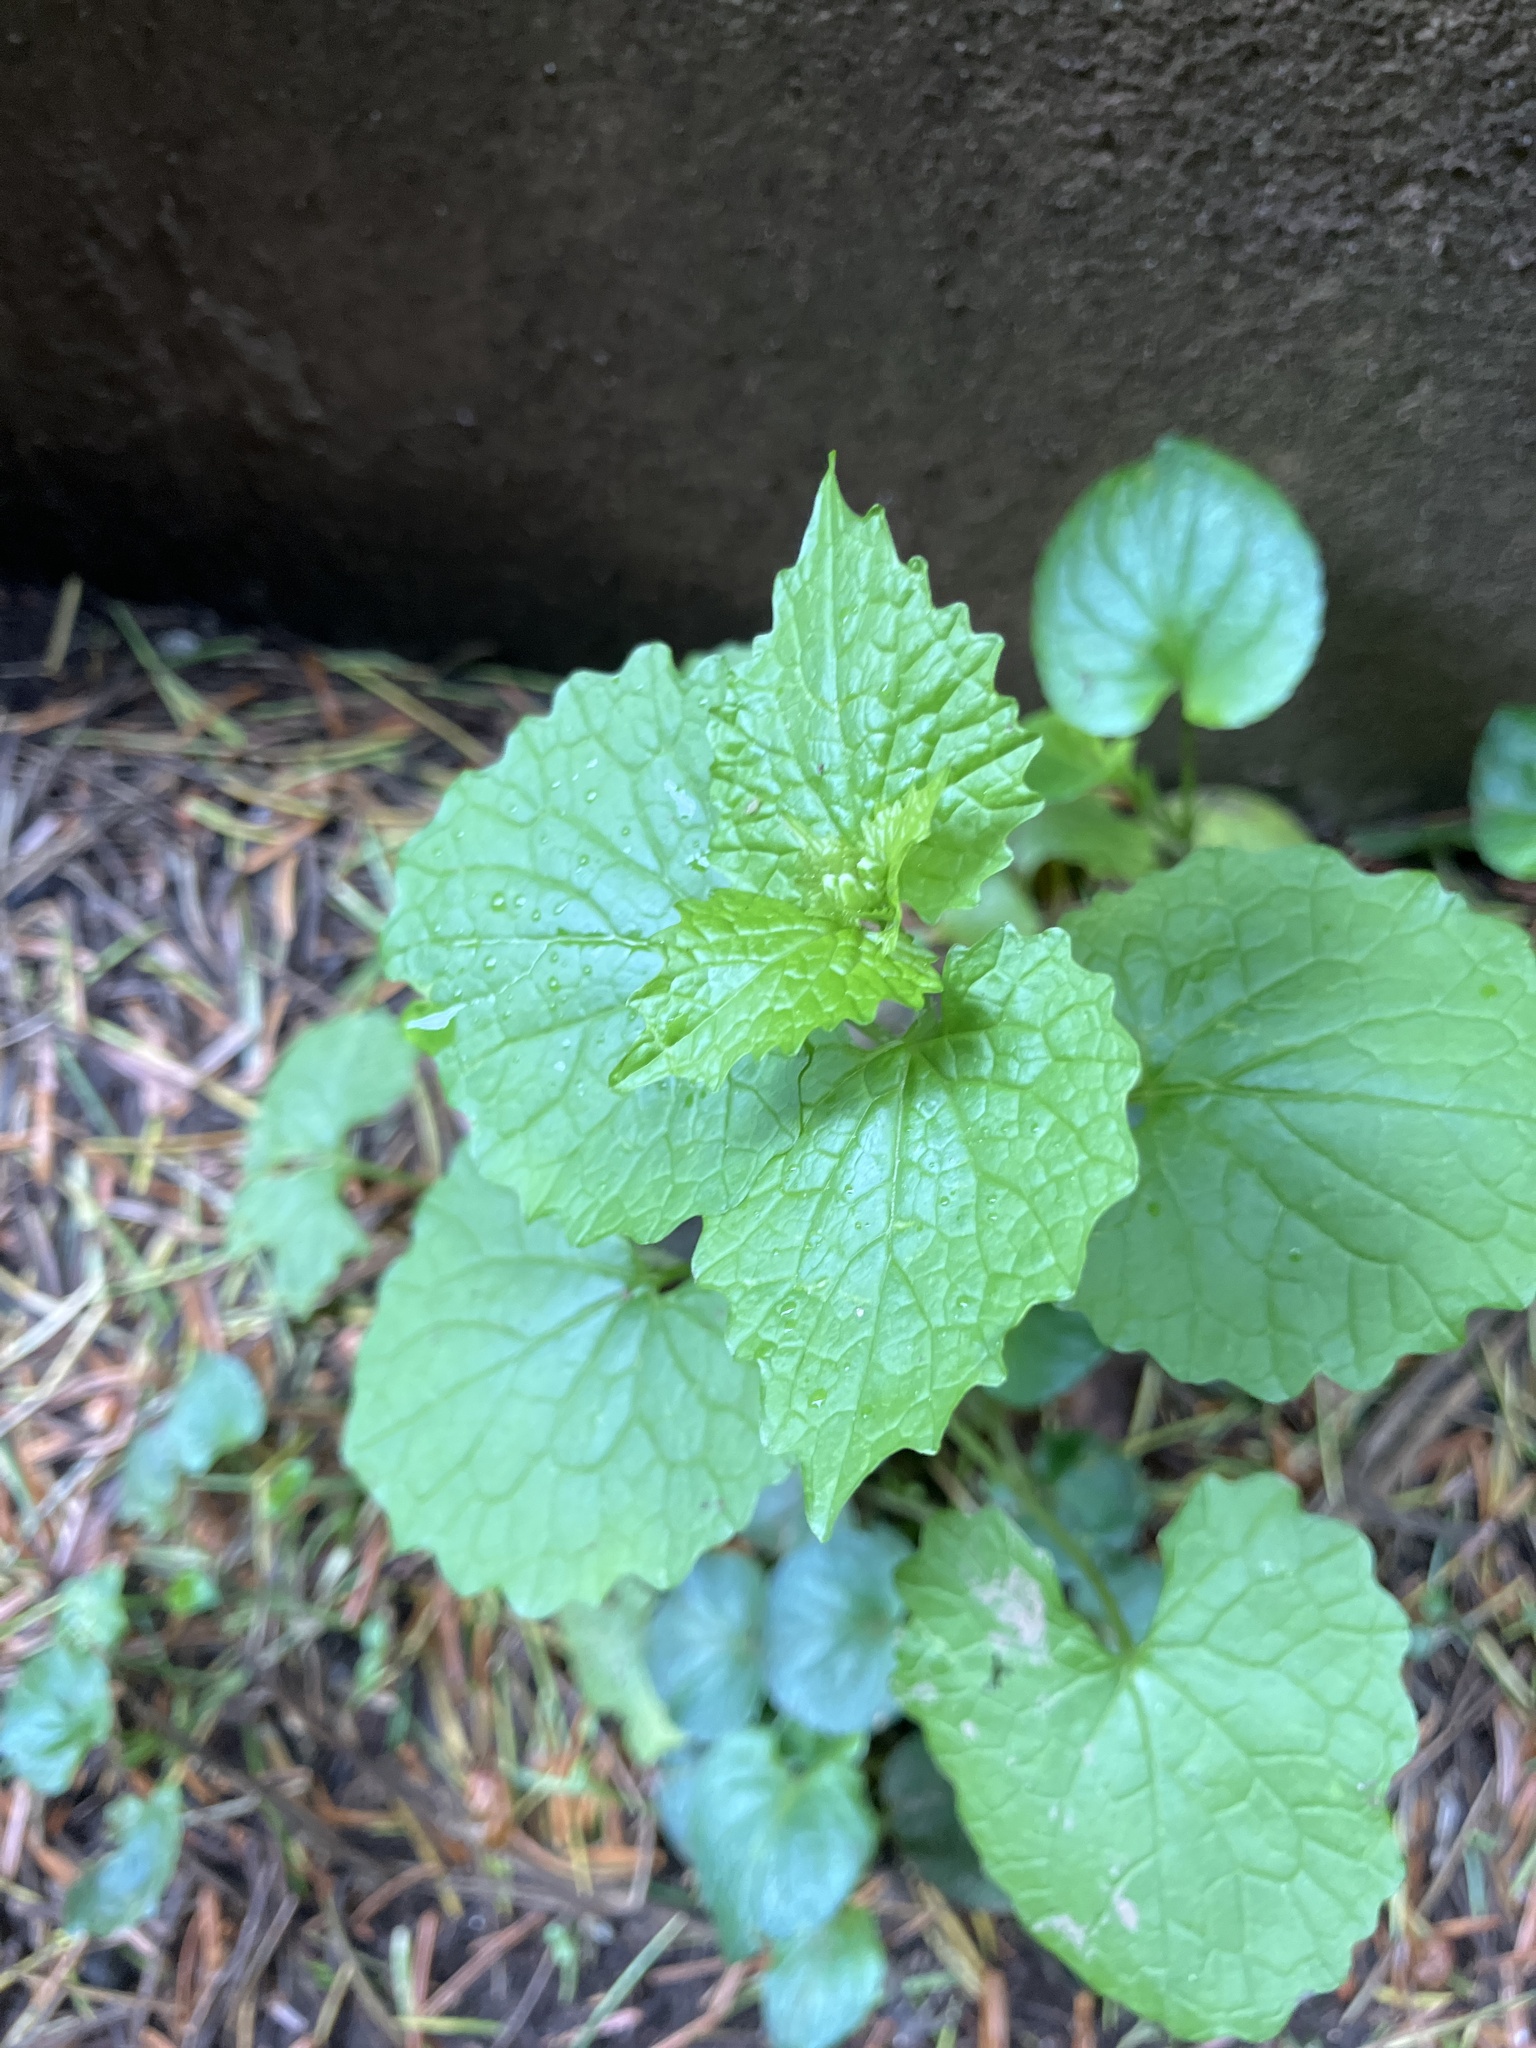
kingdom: Plantae
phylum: Tracheophyta
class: Magnoliopsida
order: Brassicales
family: Brassicaceae
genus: Alliaria
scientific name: Alliaria petiolata
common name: Garlic mustard
